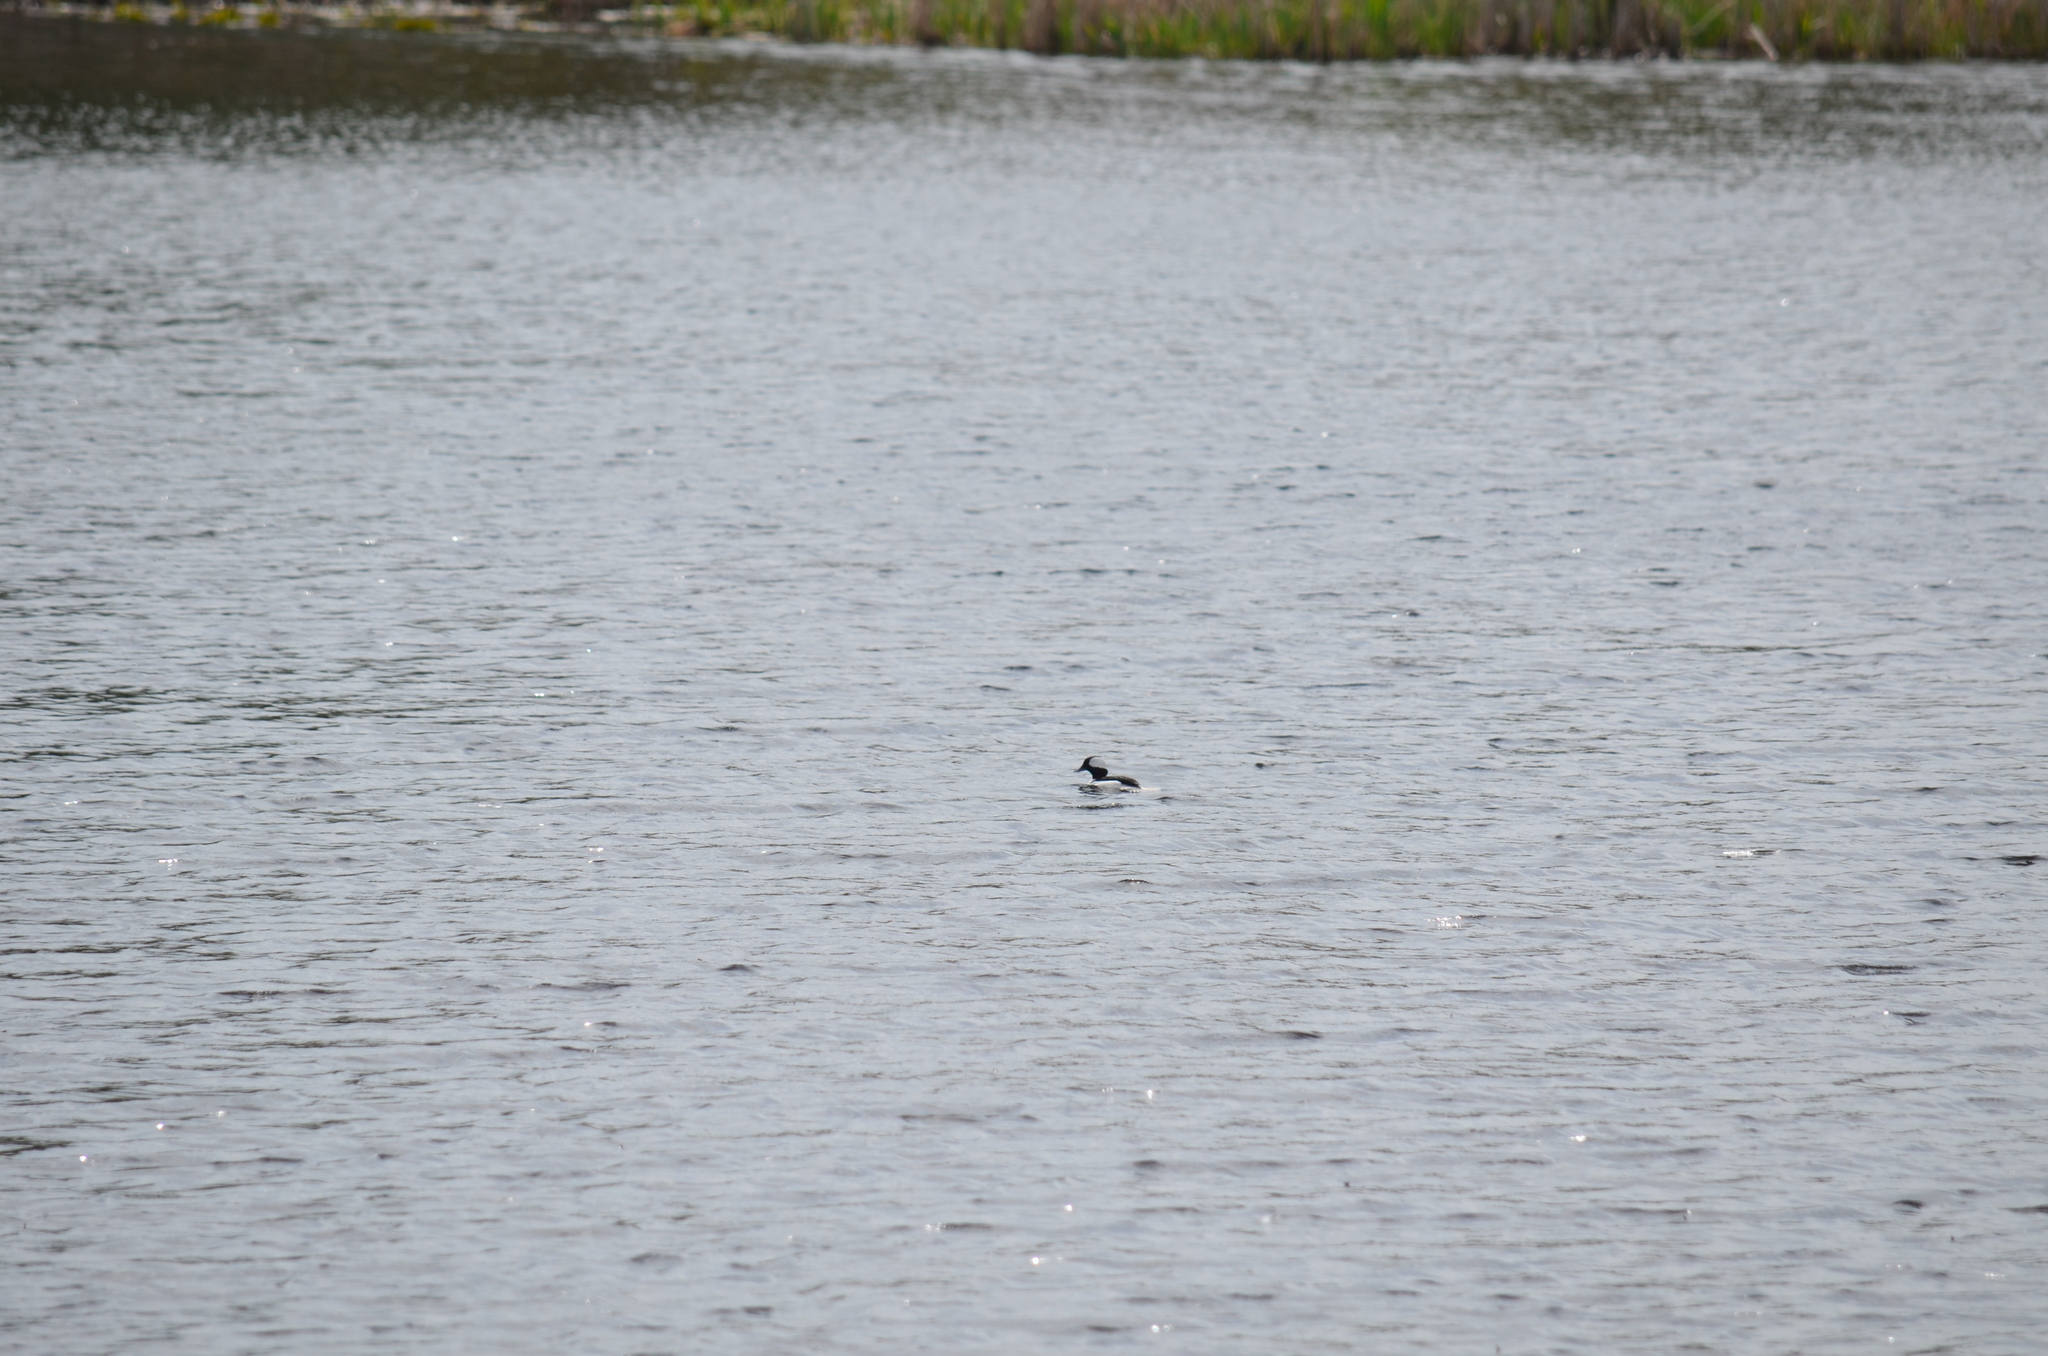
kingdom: Animalia
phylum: Chordata
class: Aves
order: Anseriformes
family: Anatidae
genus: Bucephala
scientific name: Bucephala albeola
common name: Bufflehead
